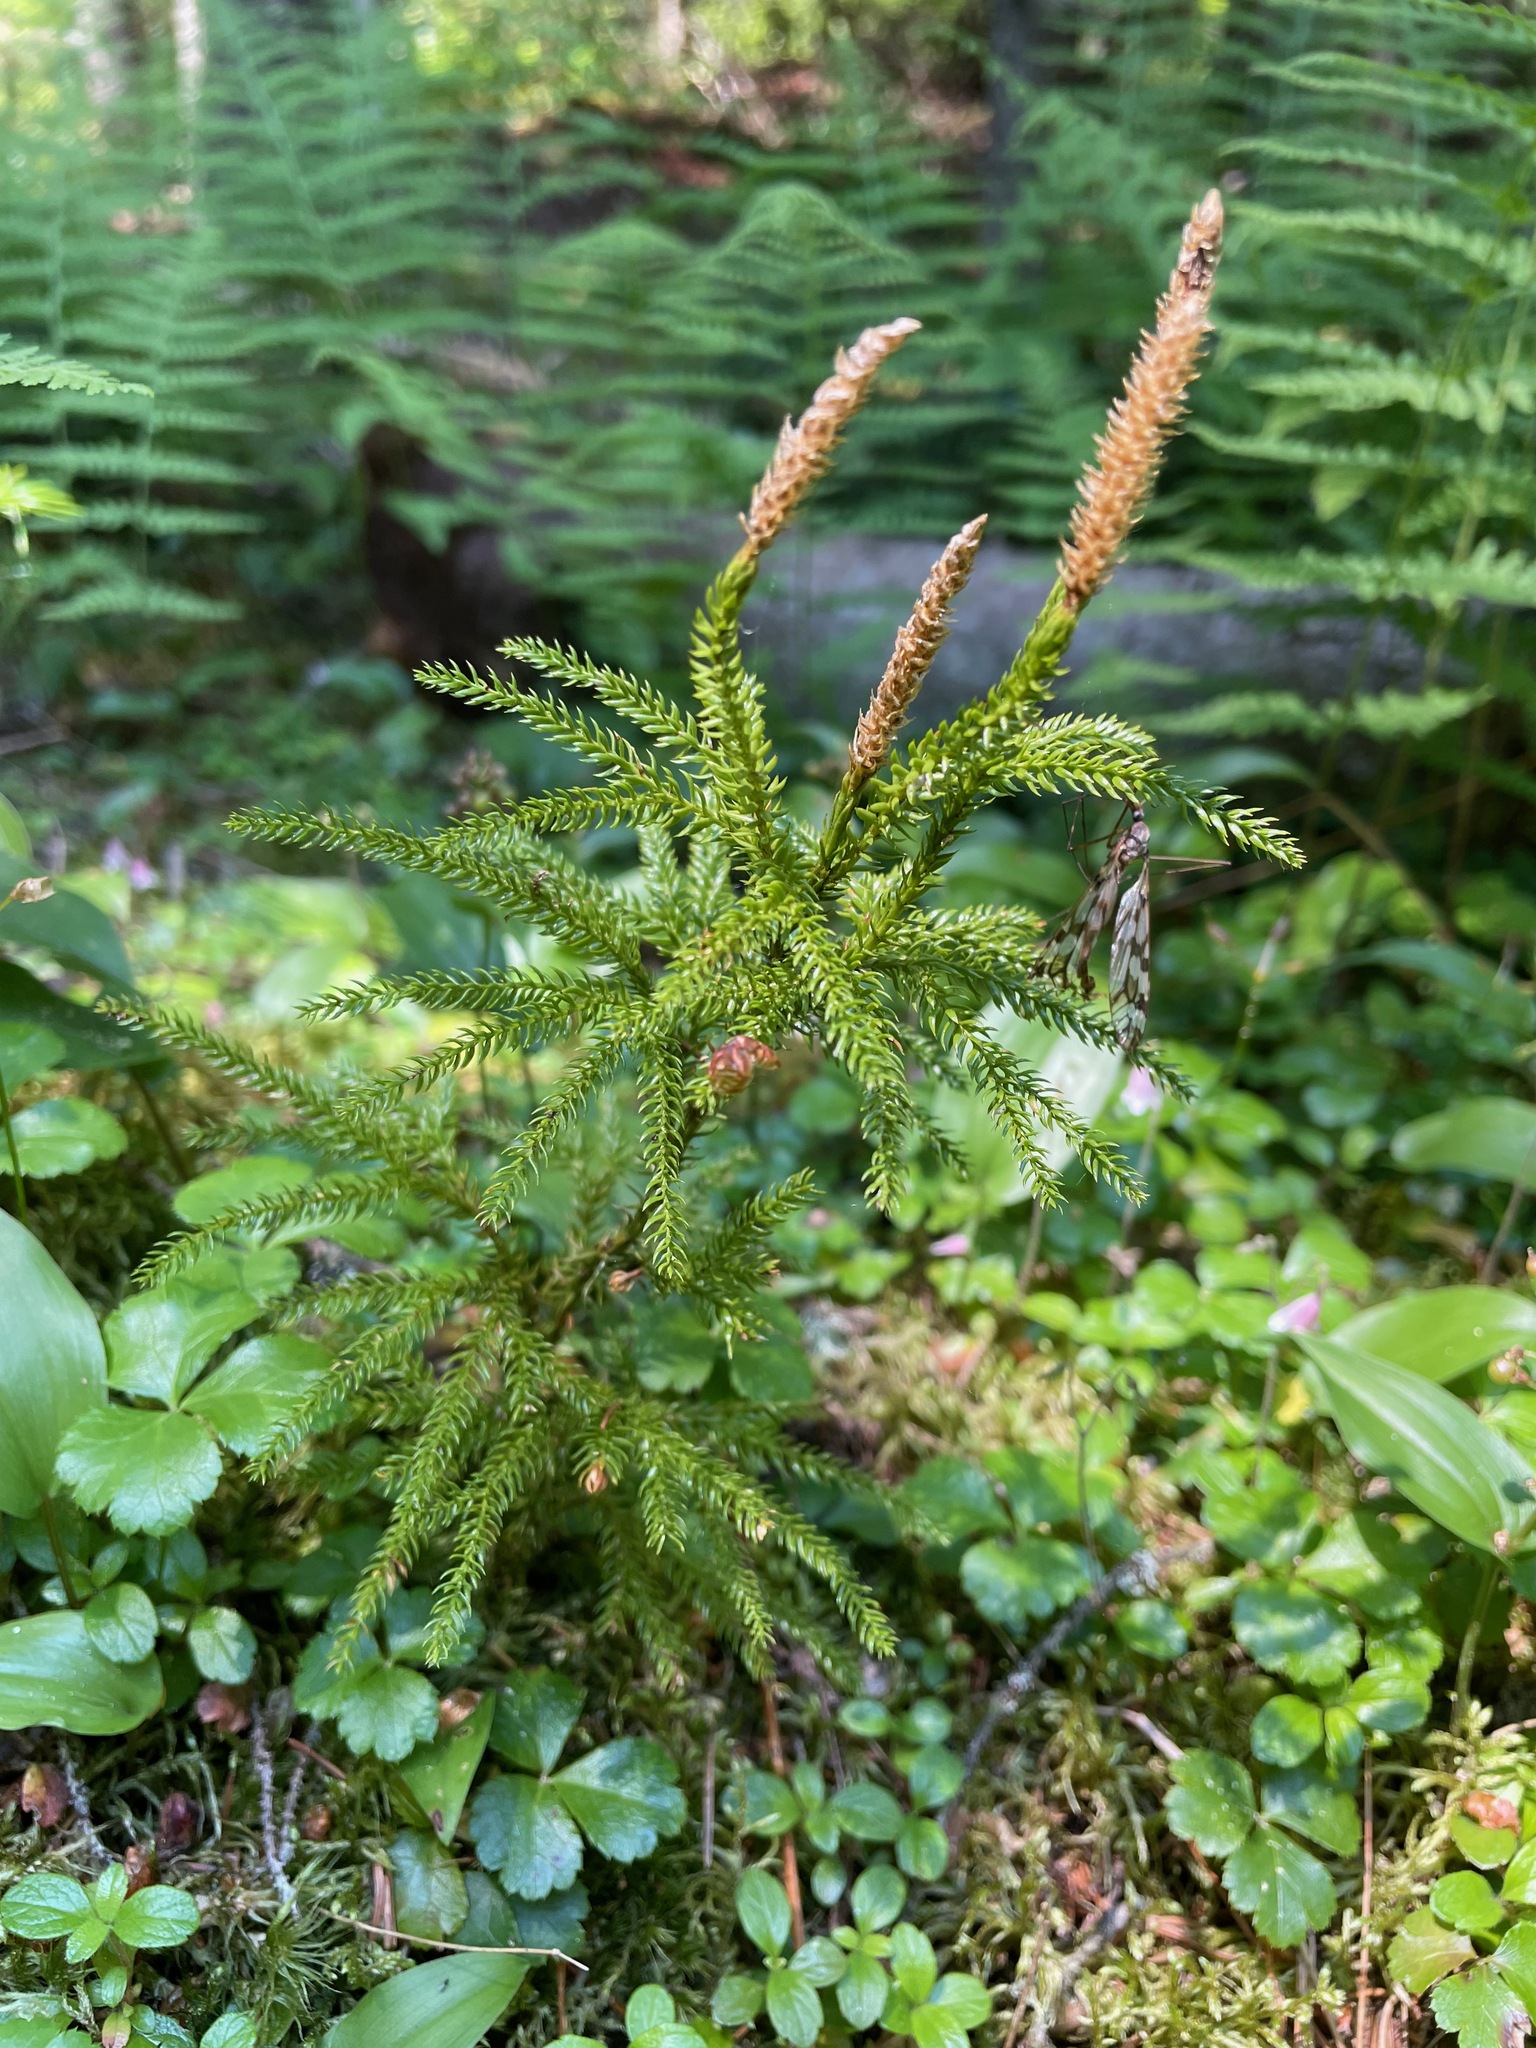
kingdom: Plantae
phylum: Tracheophyta
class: Lycopodiopsida
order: Lycopodiales
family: Lycopodiaceae
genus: Dendrolycopodium
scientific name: Dendrolycopodium dendroideum
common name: Northern tree-clubmoss
